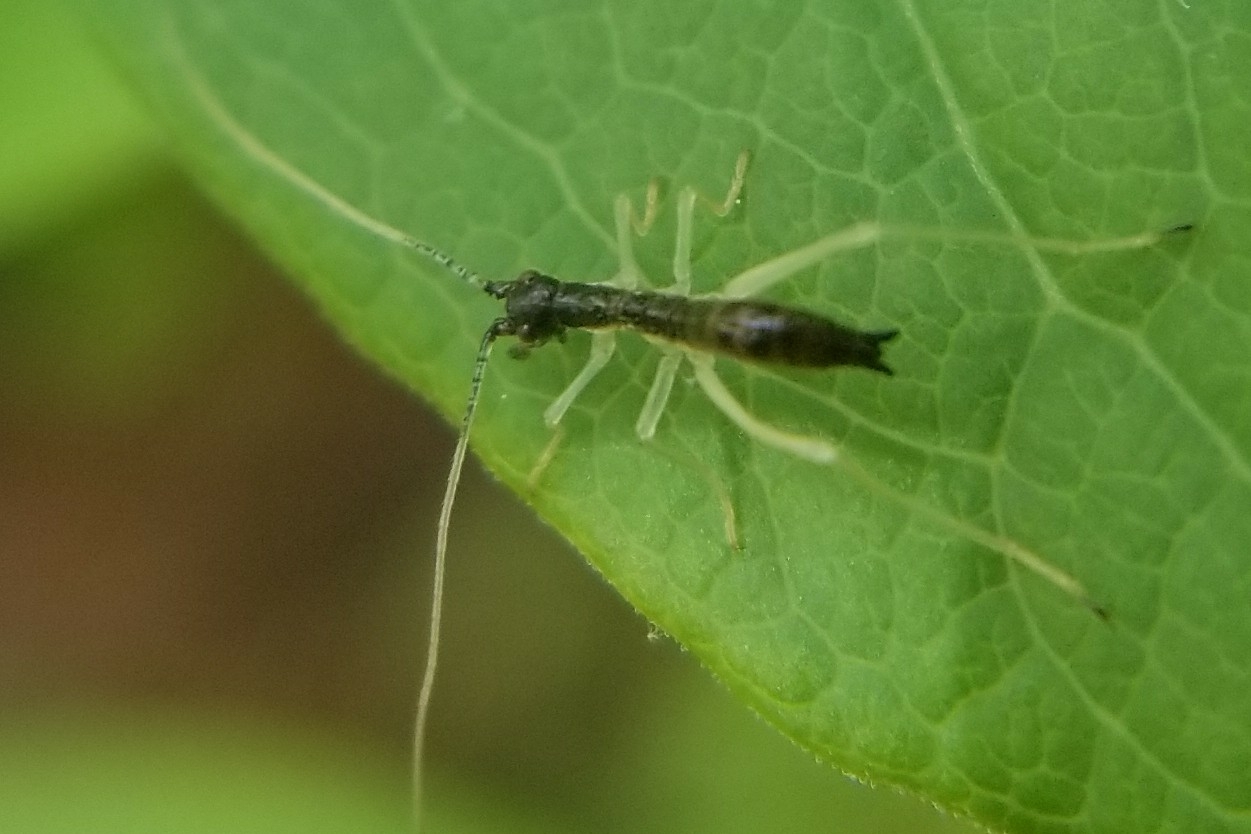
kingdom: Animalia
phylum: Arthropoda
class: Insecta
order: Orthoptera
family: Gryllidae
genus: Neoxabea
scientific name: Neoxabea bipunctata
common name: Two-spotted tree cricket
